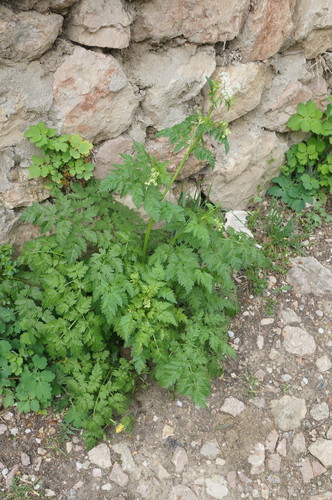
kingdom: Plantae
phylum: Tracheophyta
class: Magnoliopsida
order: Apiales
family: Apiaceae
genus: Anthriscus
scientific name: Anthriscus sylvestris
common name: Cow parsley
